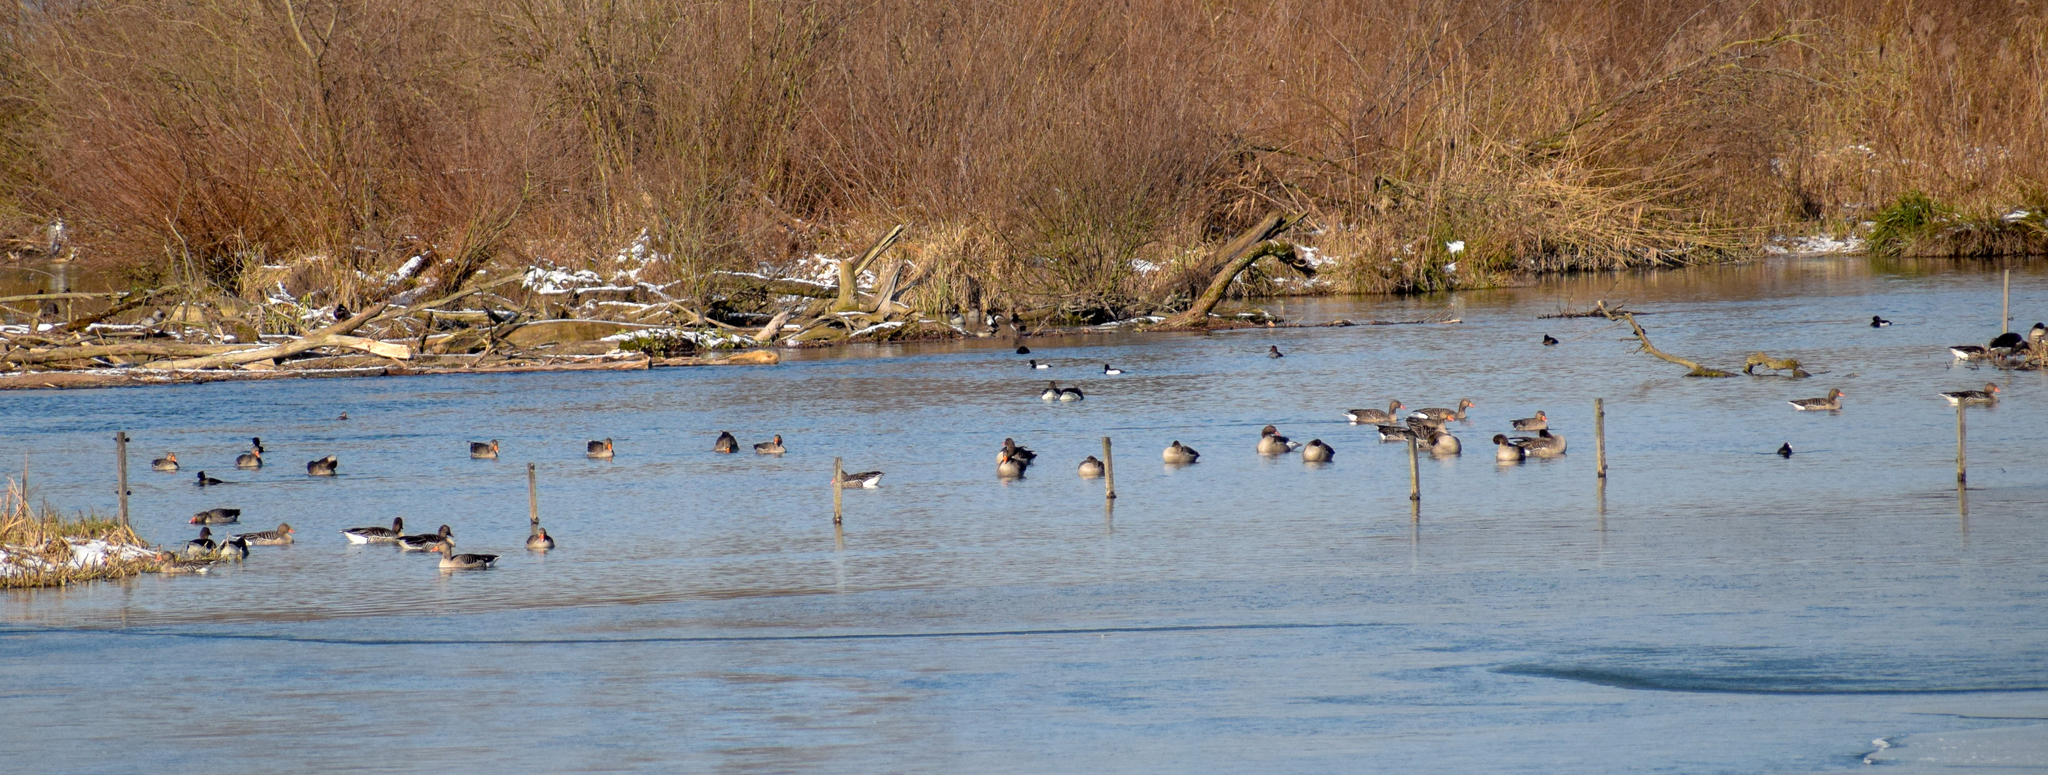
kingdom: Animalia
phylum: Chordata
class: Aves
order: Anseriformes
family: Anatidae
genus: Aythya
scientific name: Aythya fuligula
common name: Tufted duck
